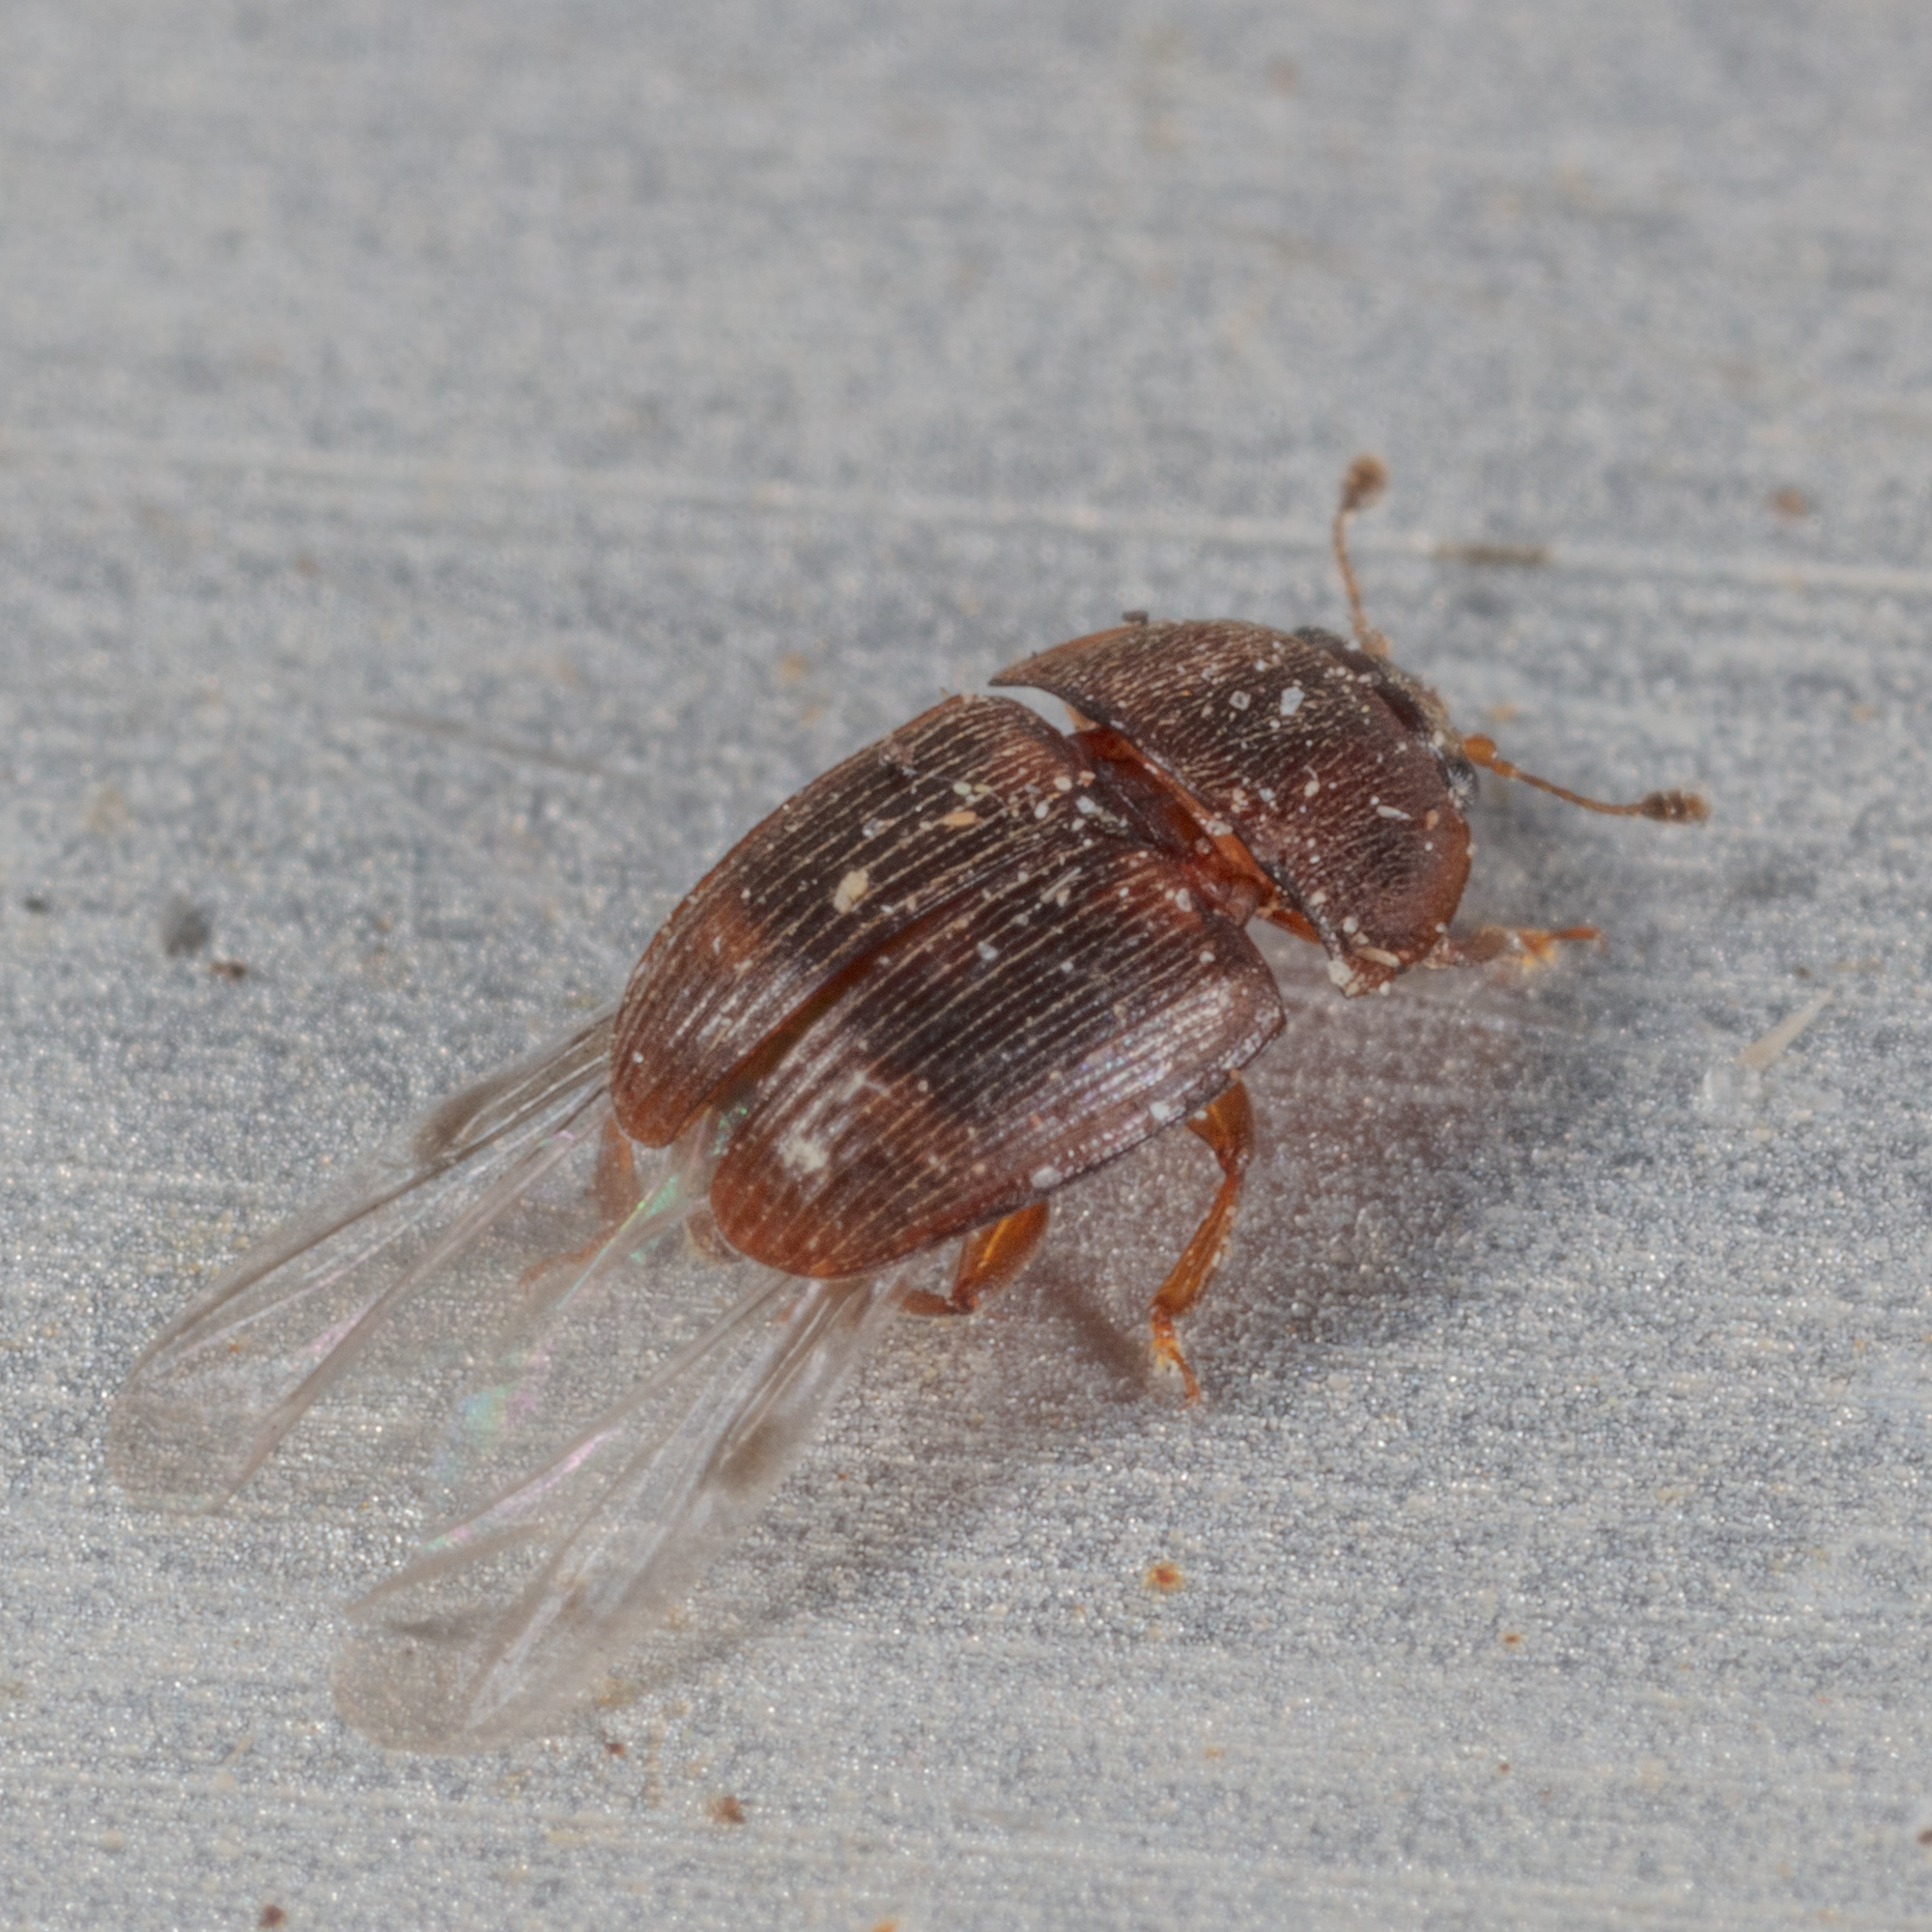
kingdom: Animalia
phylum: Arthropoda
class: Insecta
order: Coleoptera
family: Nitidulidae
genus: Stelidota
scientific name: Stelidota coenosa
